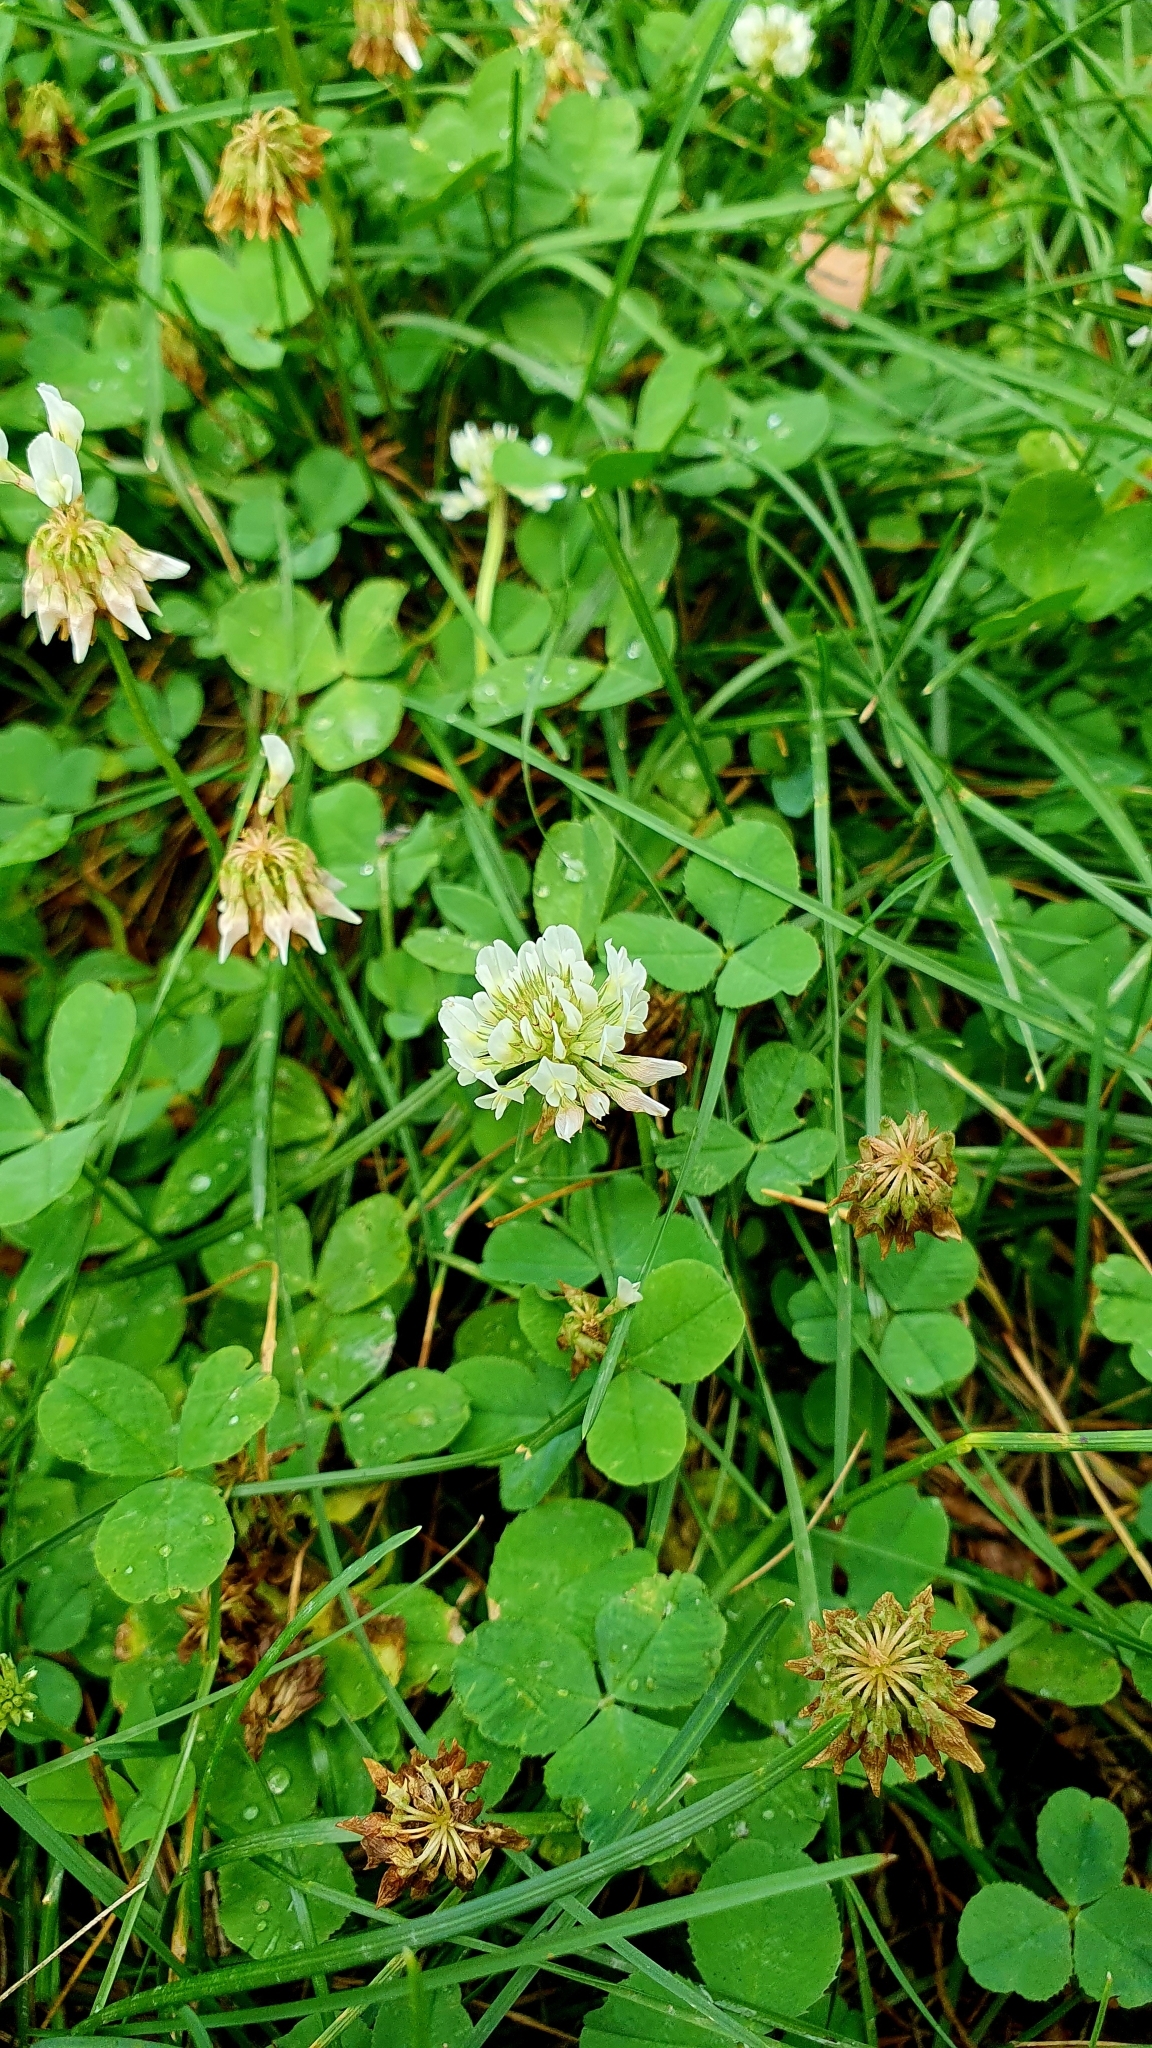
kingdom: Plantae
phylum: Tracheophyta
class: Magnoliopsida
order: Fabales
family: Fabaceae
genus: Trifolium
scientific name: Trifolium repens
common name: White clover
